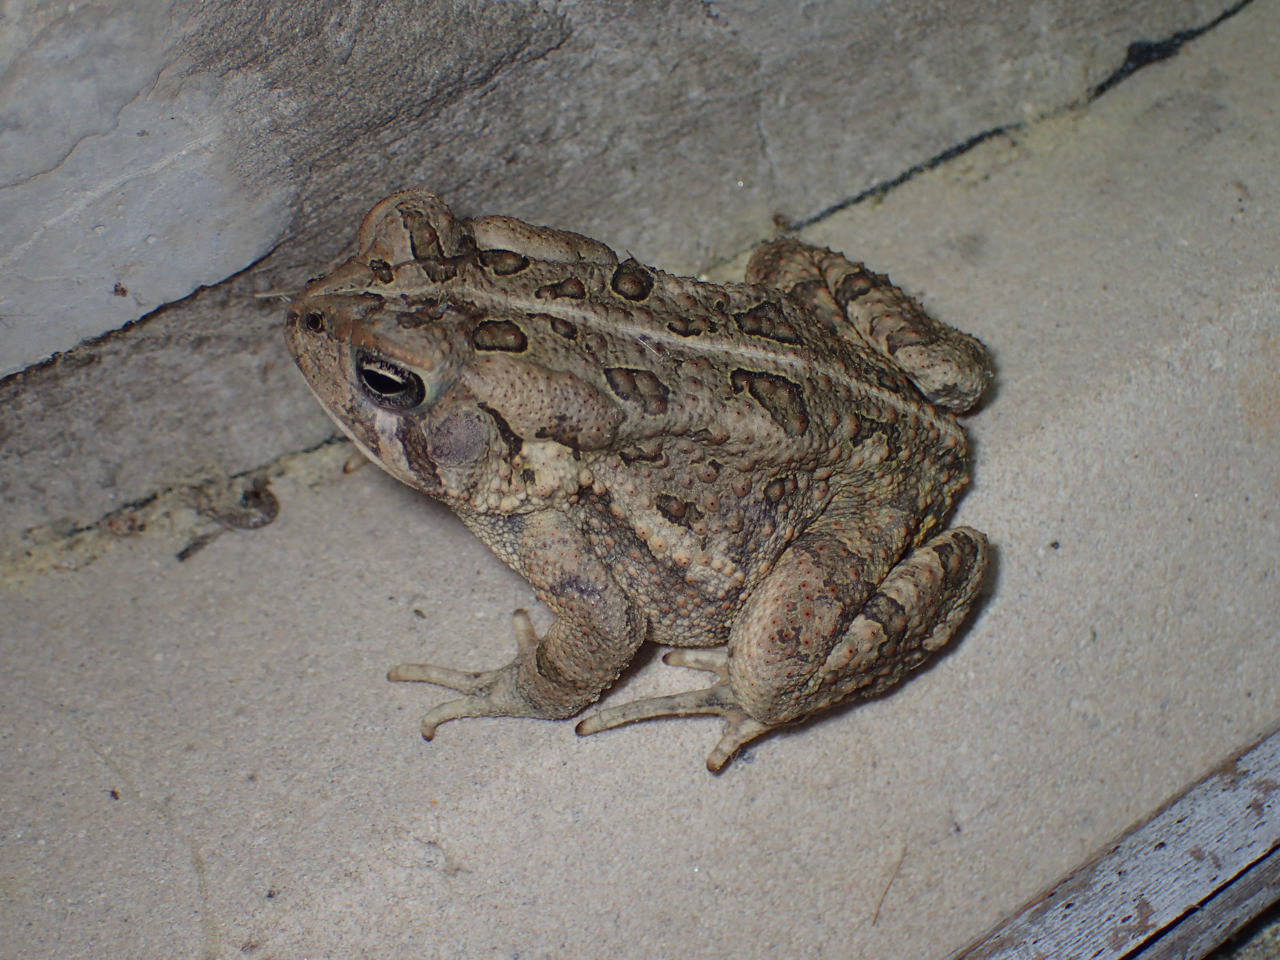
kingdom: Animalia
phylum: Chordata
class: Amphibia
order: Anura
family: Bufonidae
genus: Anaxyrus
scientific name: Anaxyrus fowleri
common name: Fowler's toad
